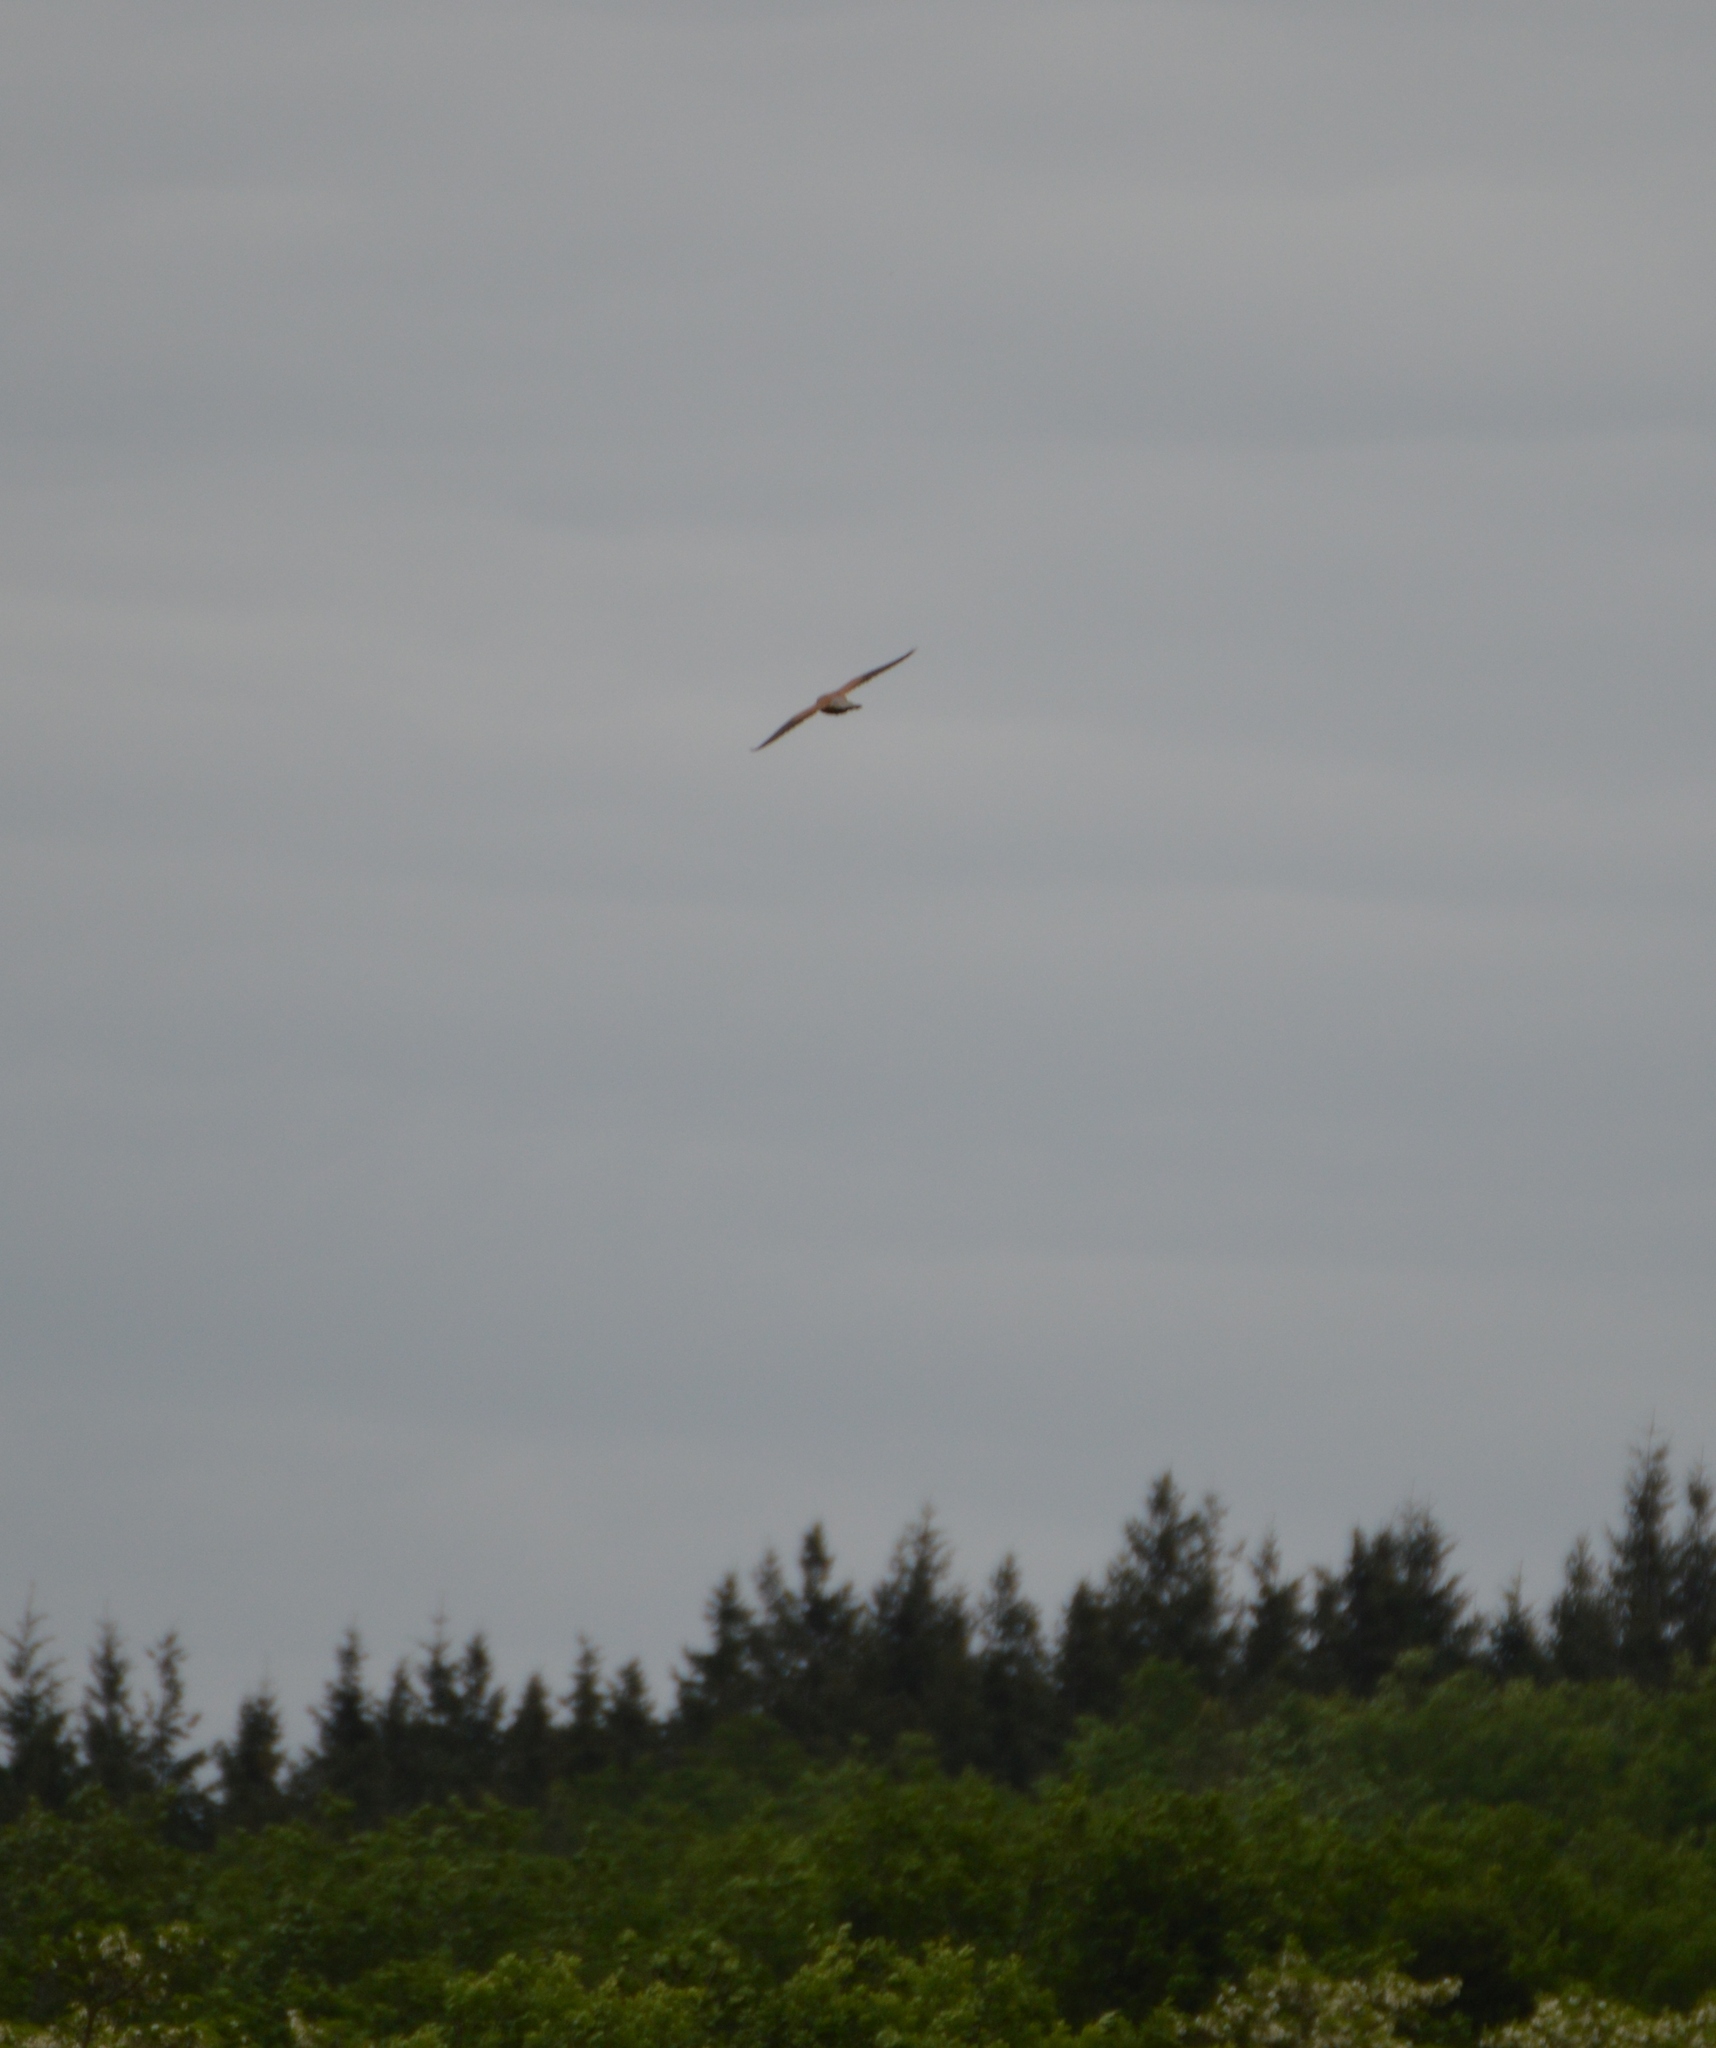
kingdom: Animalia
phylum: Chordata
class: Aves
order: Falconiformes
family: Falconidae
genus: Falco
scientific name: Falco tinnunculus
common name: Common kestrel
